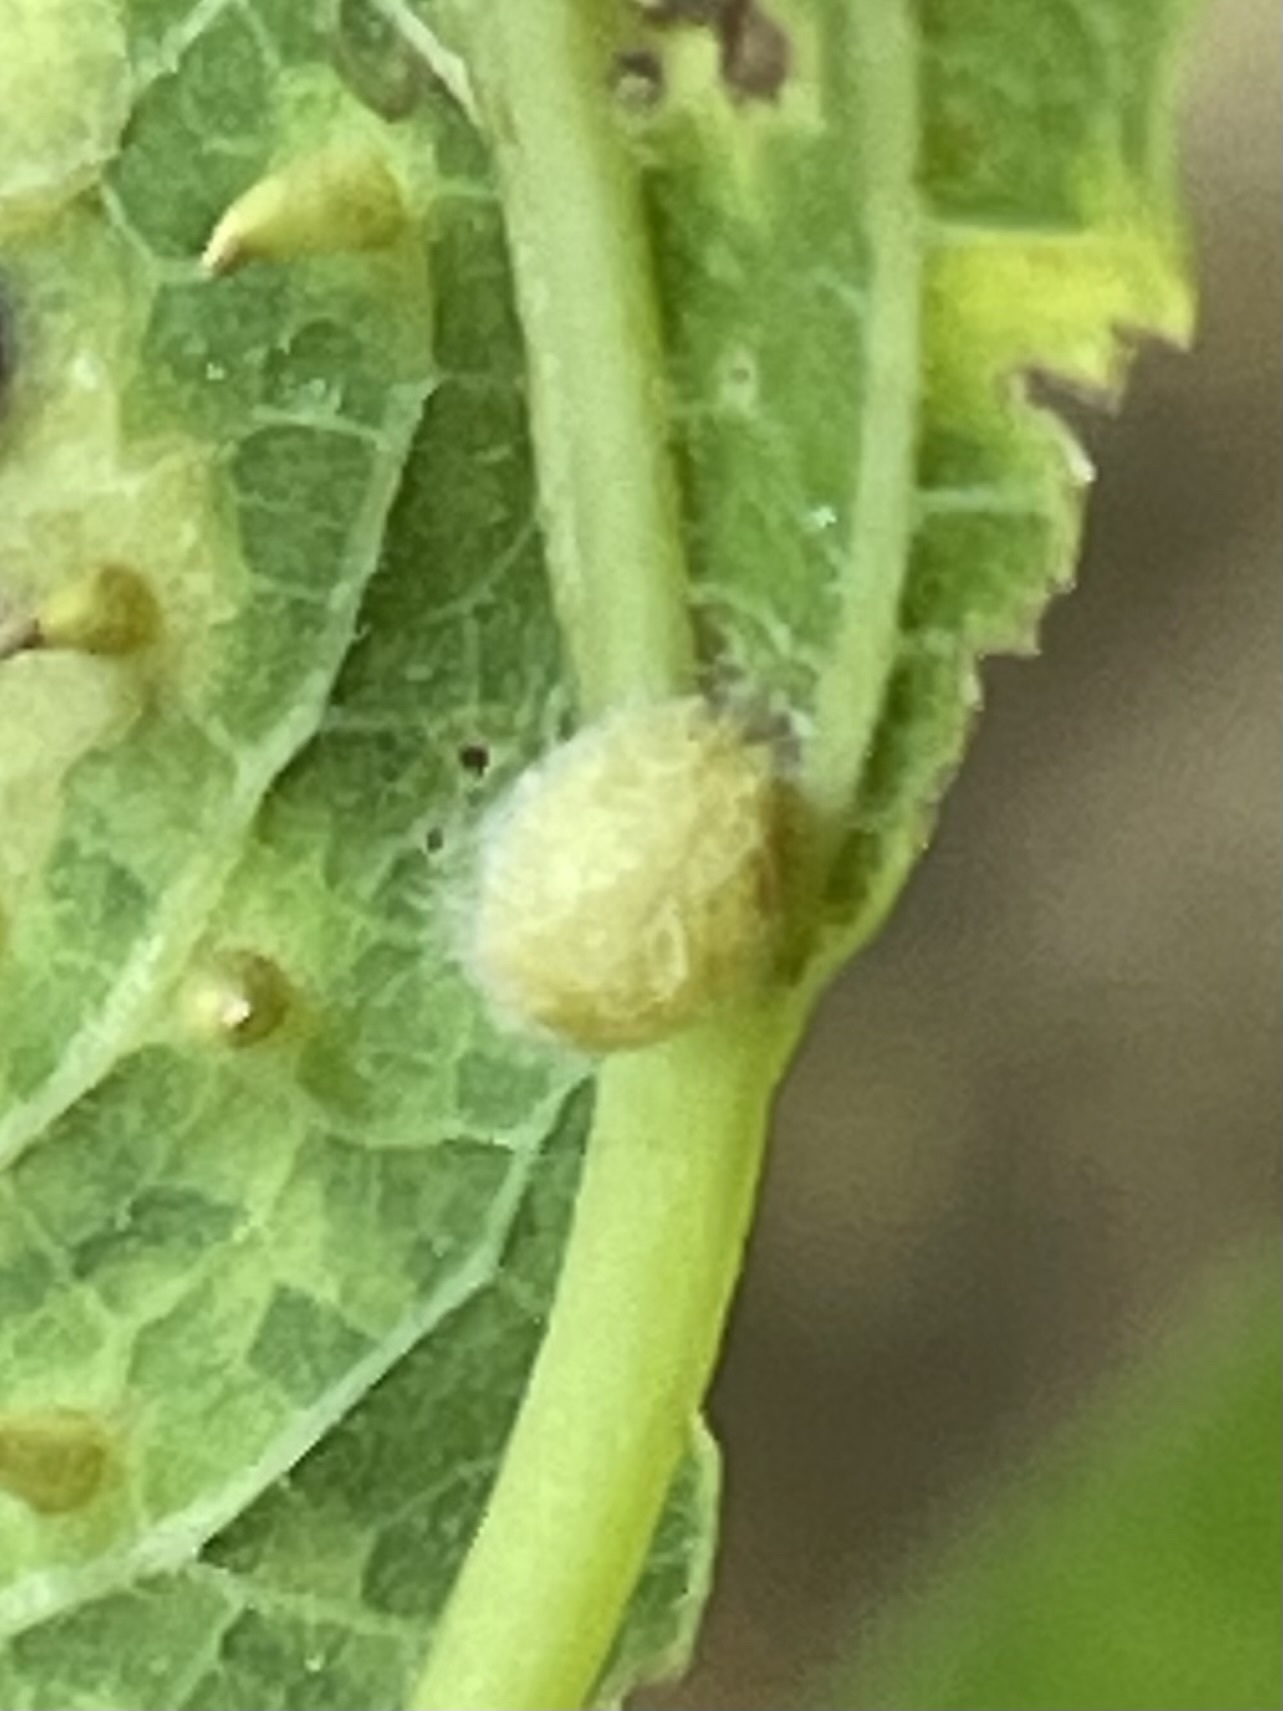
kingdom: Animalia
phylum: Arthropoda
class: Insecta
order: Diptera
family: Cecidomyiidae
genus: Celticecis
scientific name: Celticecis pubescens
